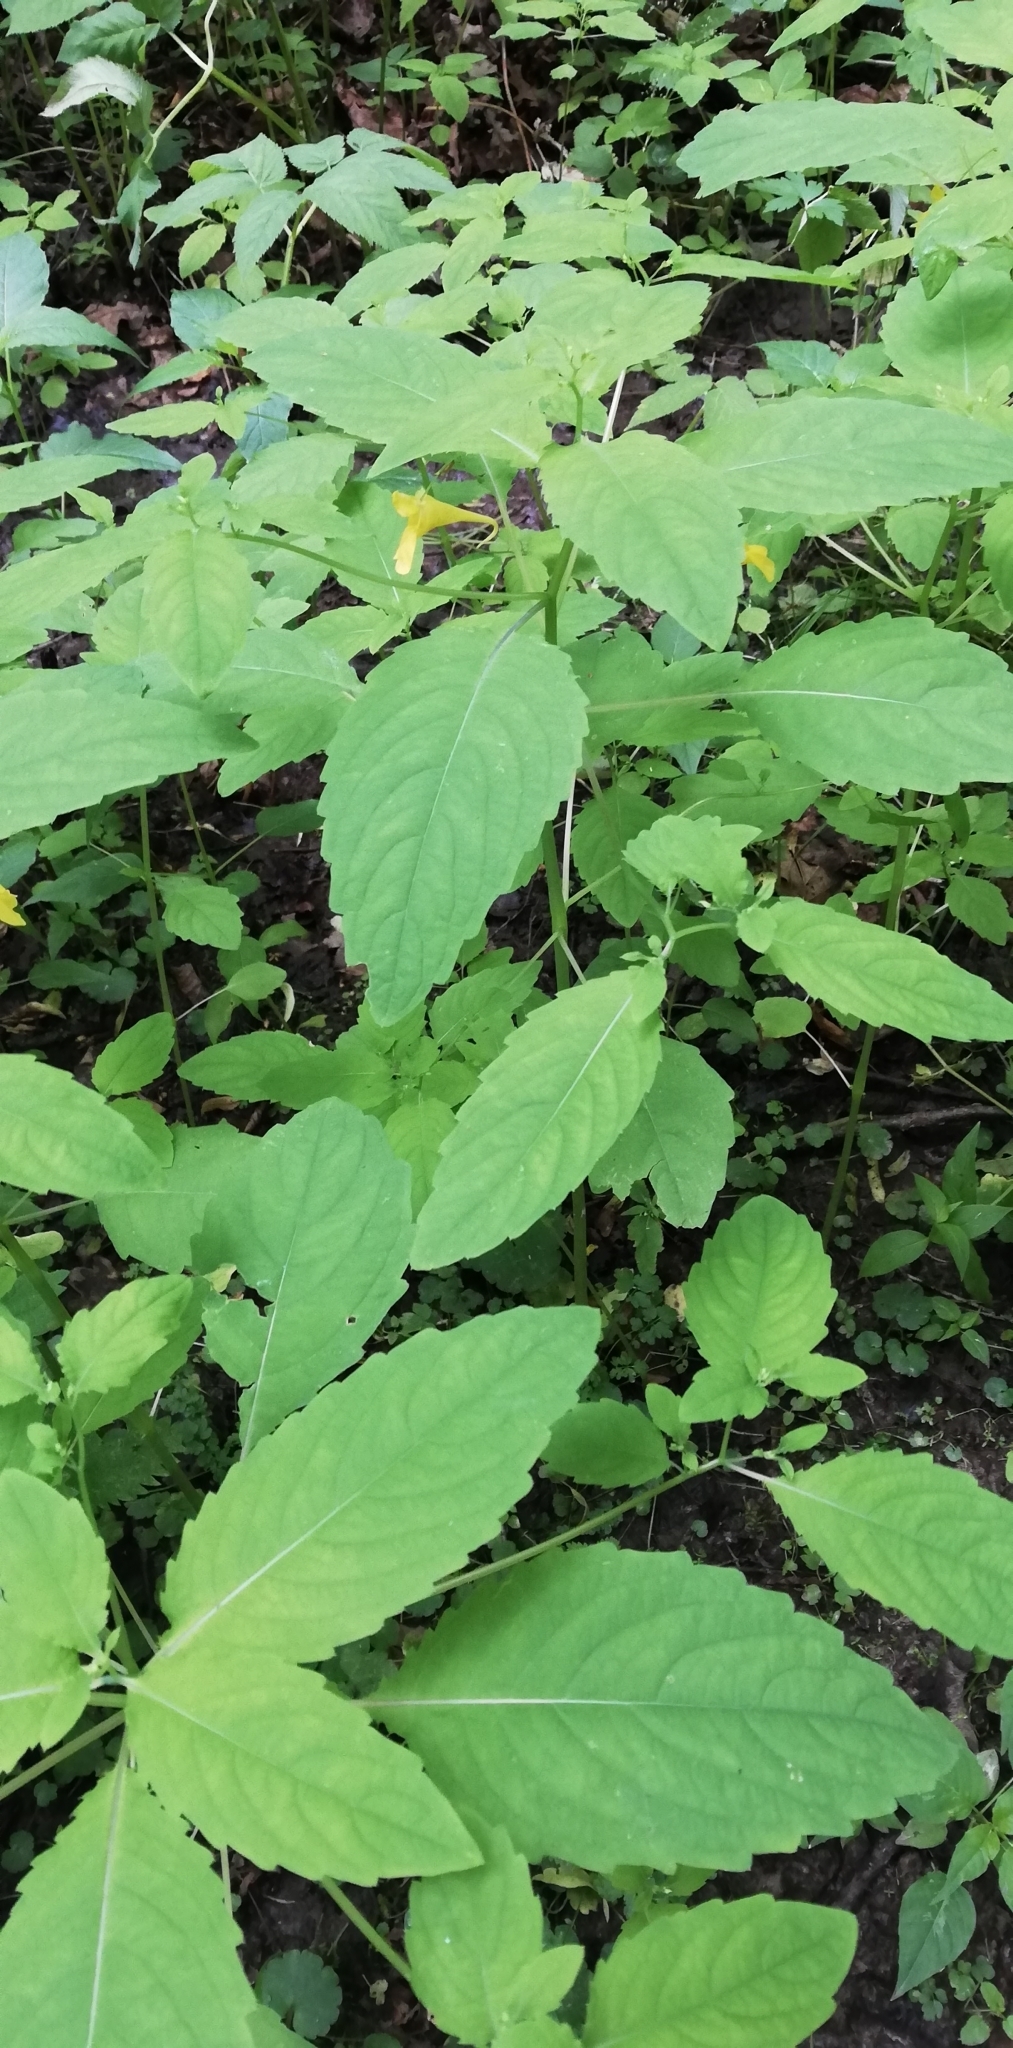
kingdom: Plantae
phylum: Tracheophyta
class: Magnoliopsida
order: Ericales
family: Balsaminaceae
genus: Impatiens
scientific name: Impatiens noli-tangere
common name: Touch-me-not balsam
